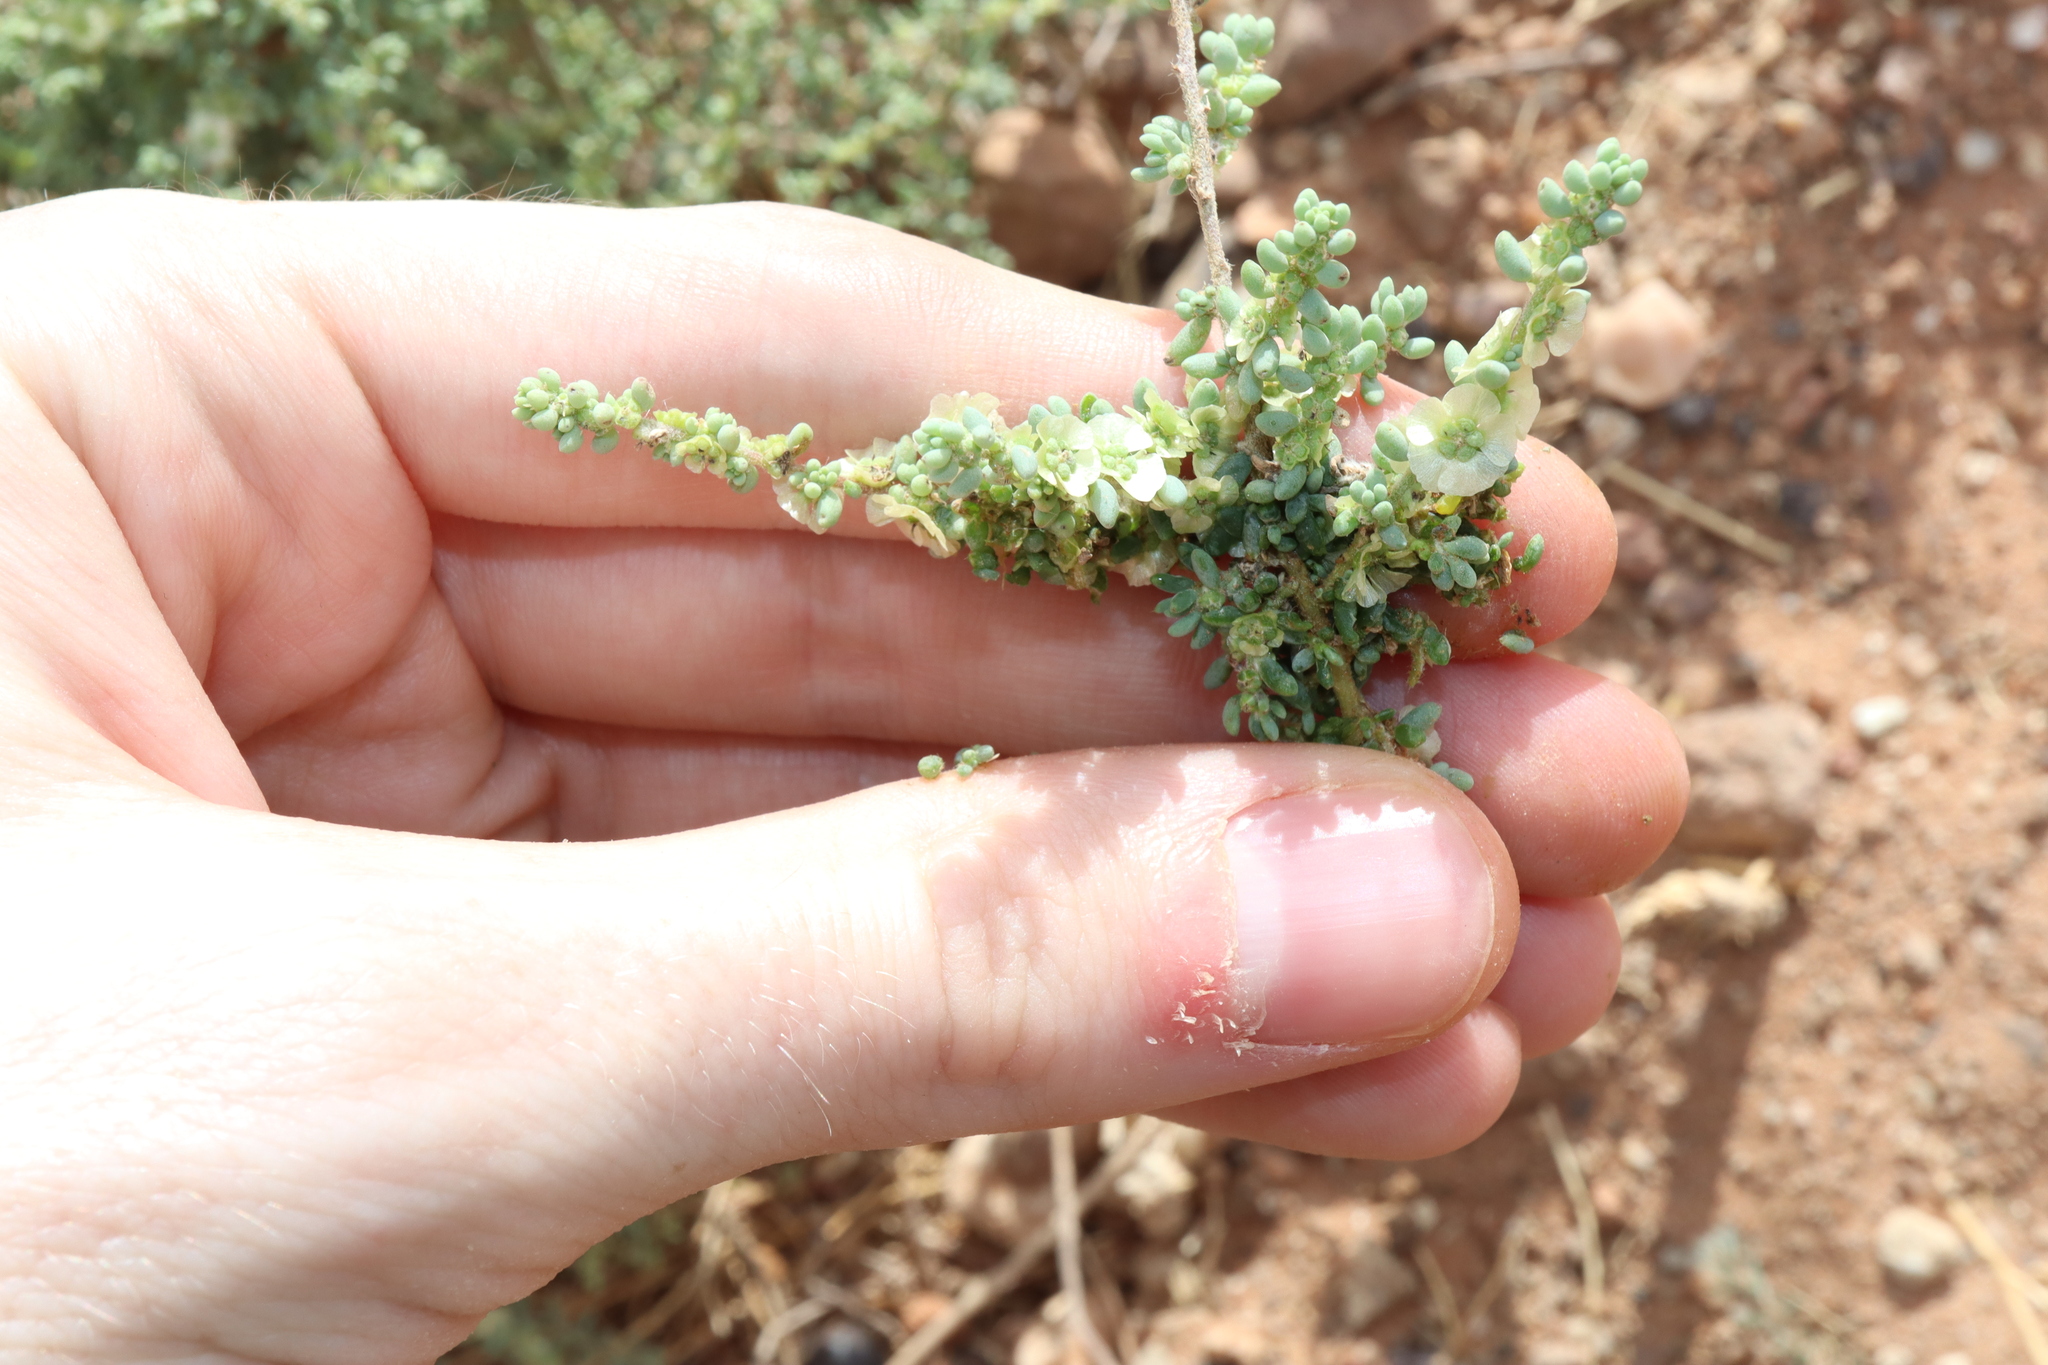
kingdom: Plantae
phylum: Tracheophyta
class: Magnoliopsida
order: Caryophyllales
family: Amaranthaceae
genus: Maireana
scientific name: Maireana brevifolia
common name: Eastern cottonbush
